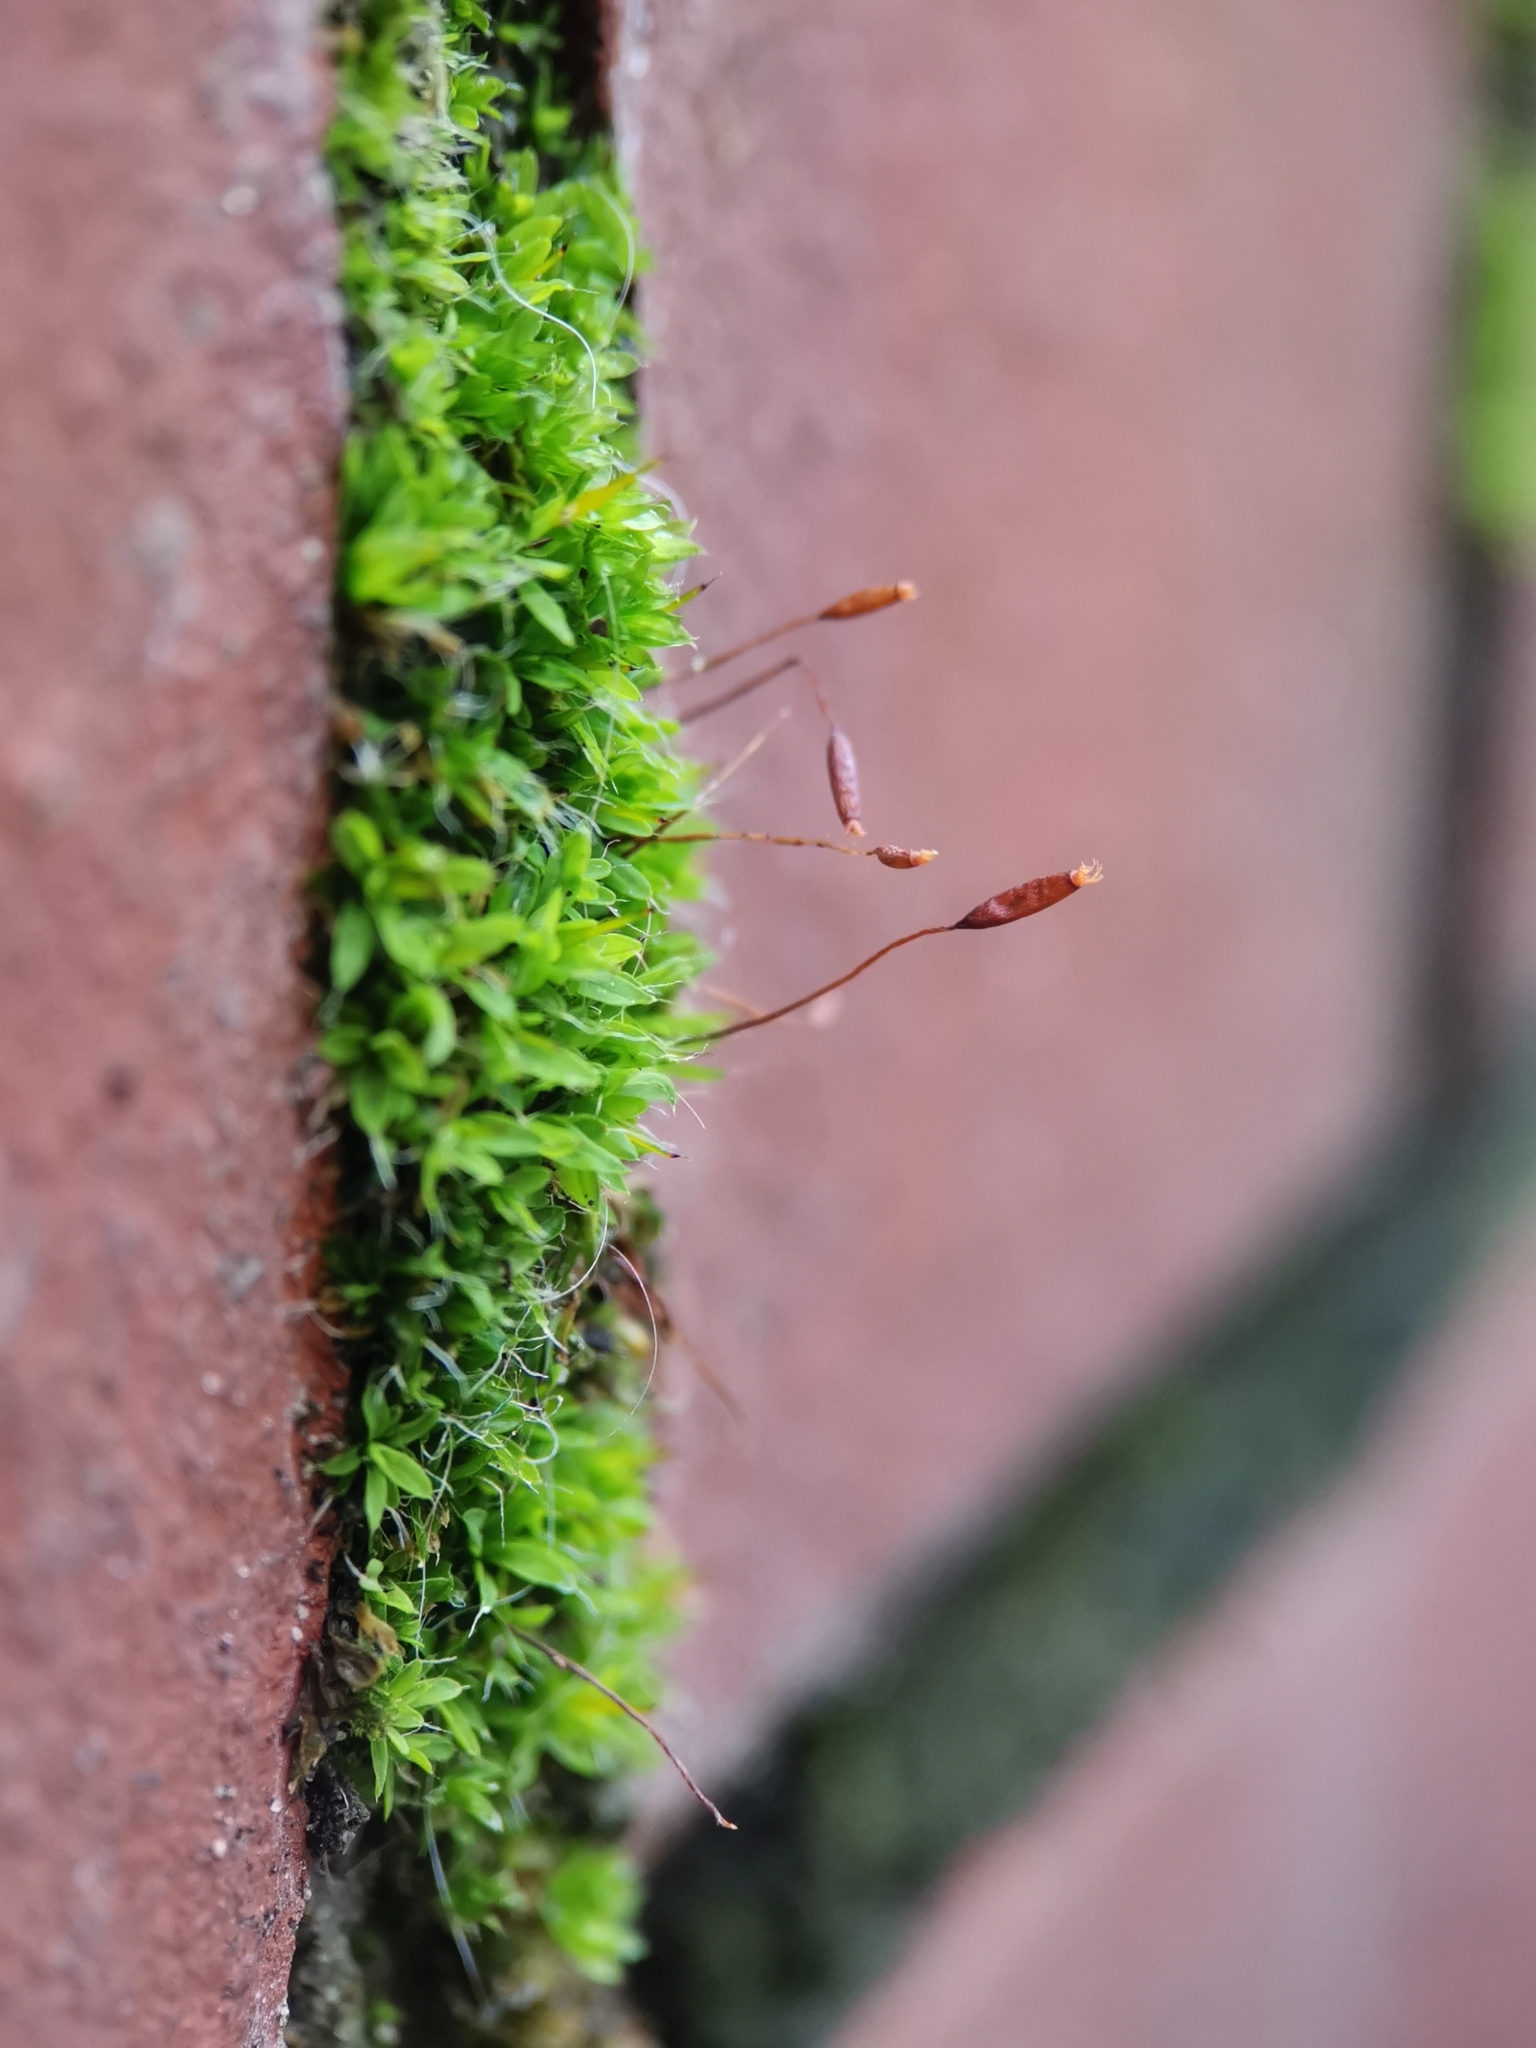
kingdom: Plantae
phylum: Bryophyta
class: Bryopsida
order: Pottiales
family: Pottiaceae
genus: Tortula
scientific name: Tortula muralis
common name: Wall screw-moss
